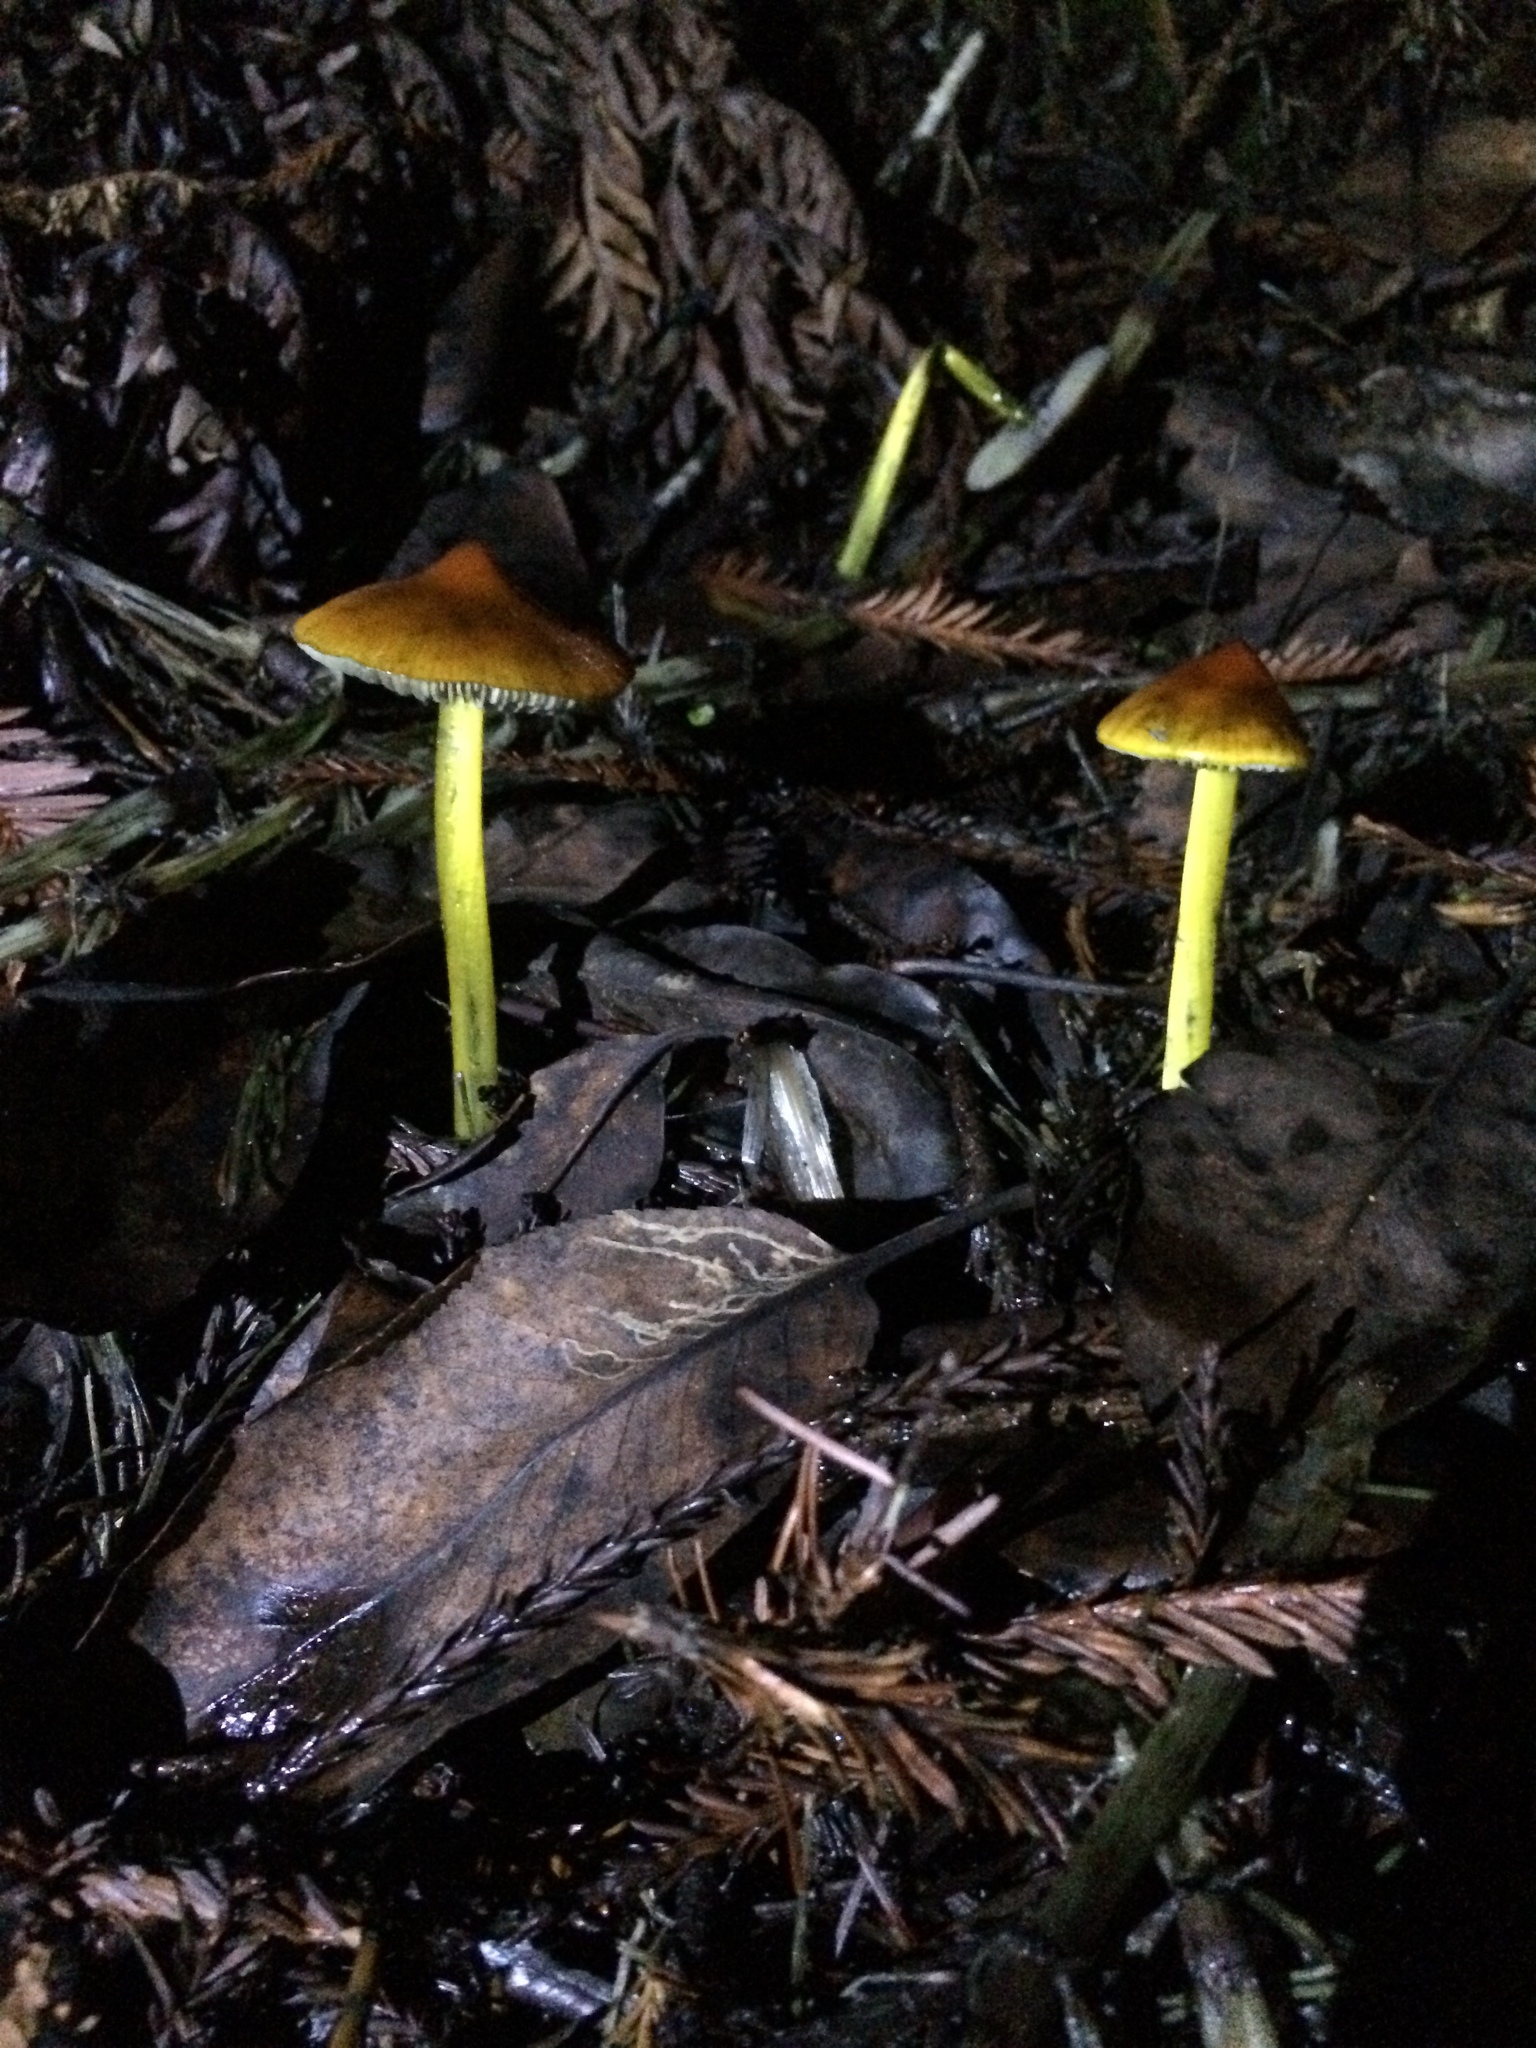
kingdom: Fungi
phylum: Basidiomycota
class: Agaricomycetes
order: Agaricales
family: Hygrophoraceae
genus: Hygrocybe
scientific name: Hygrocybe singeri
